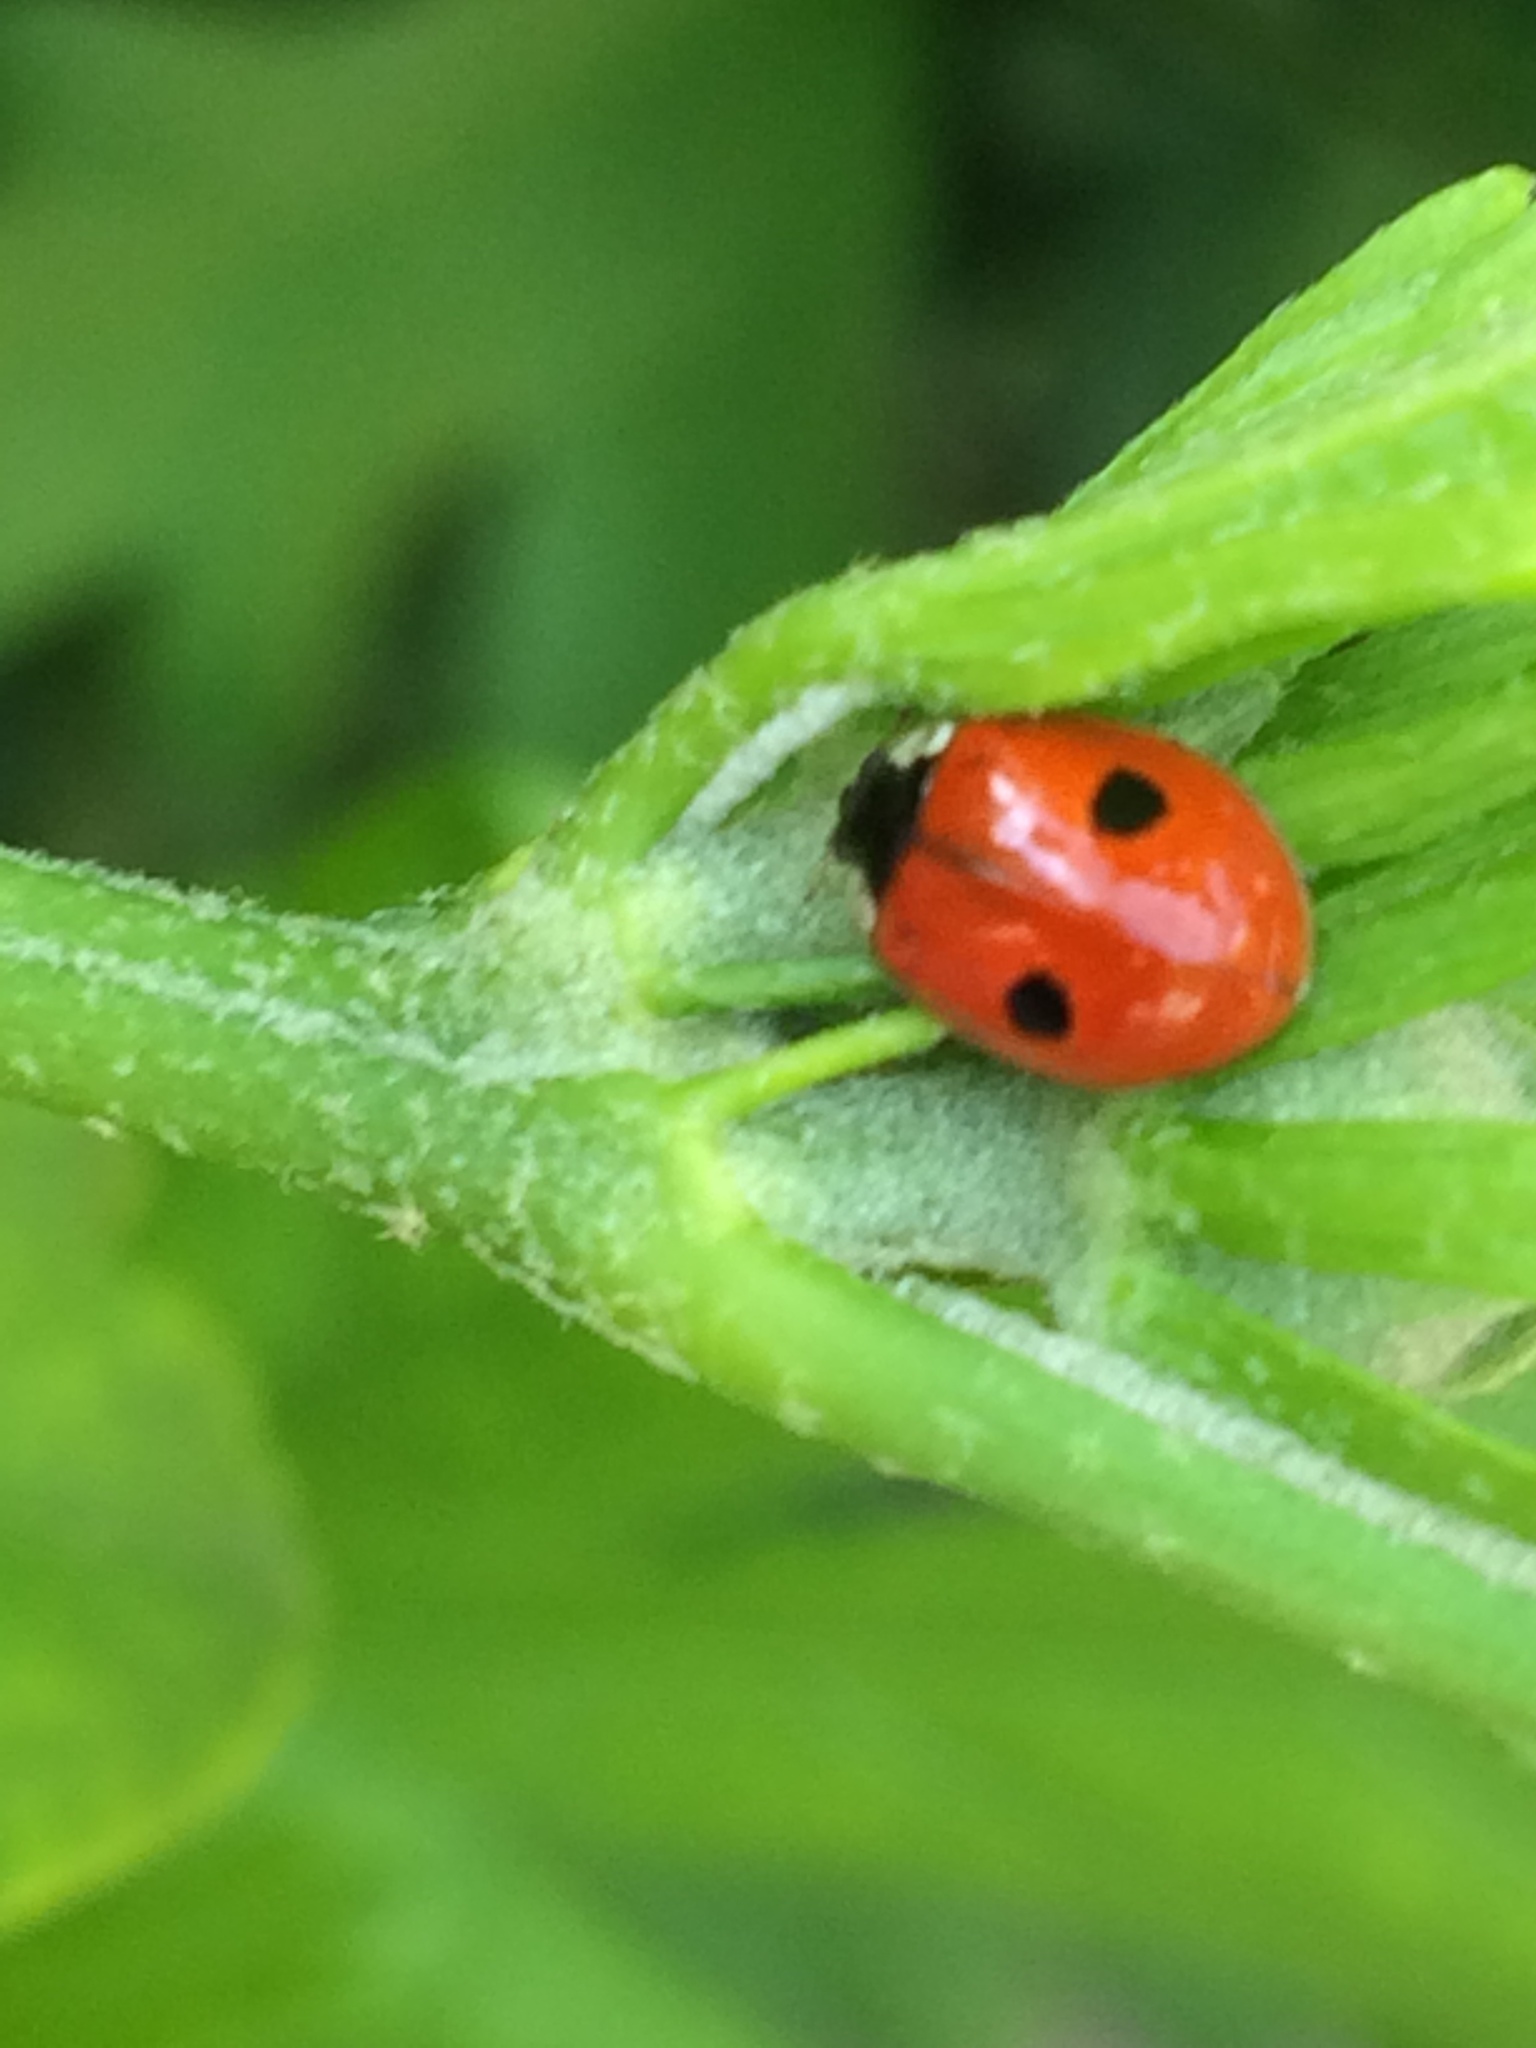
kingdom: Animalia
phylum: Arthropoda
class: Insecta
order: Coleoptera
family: Coccinellidae
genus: Adalia
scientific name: Adalia bipunctata
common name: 2-spot ladybird
